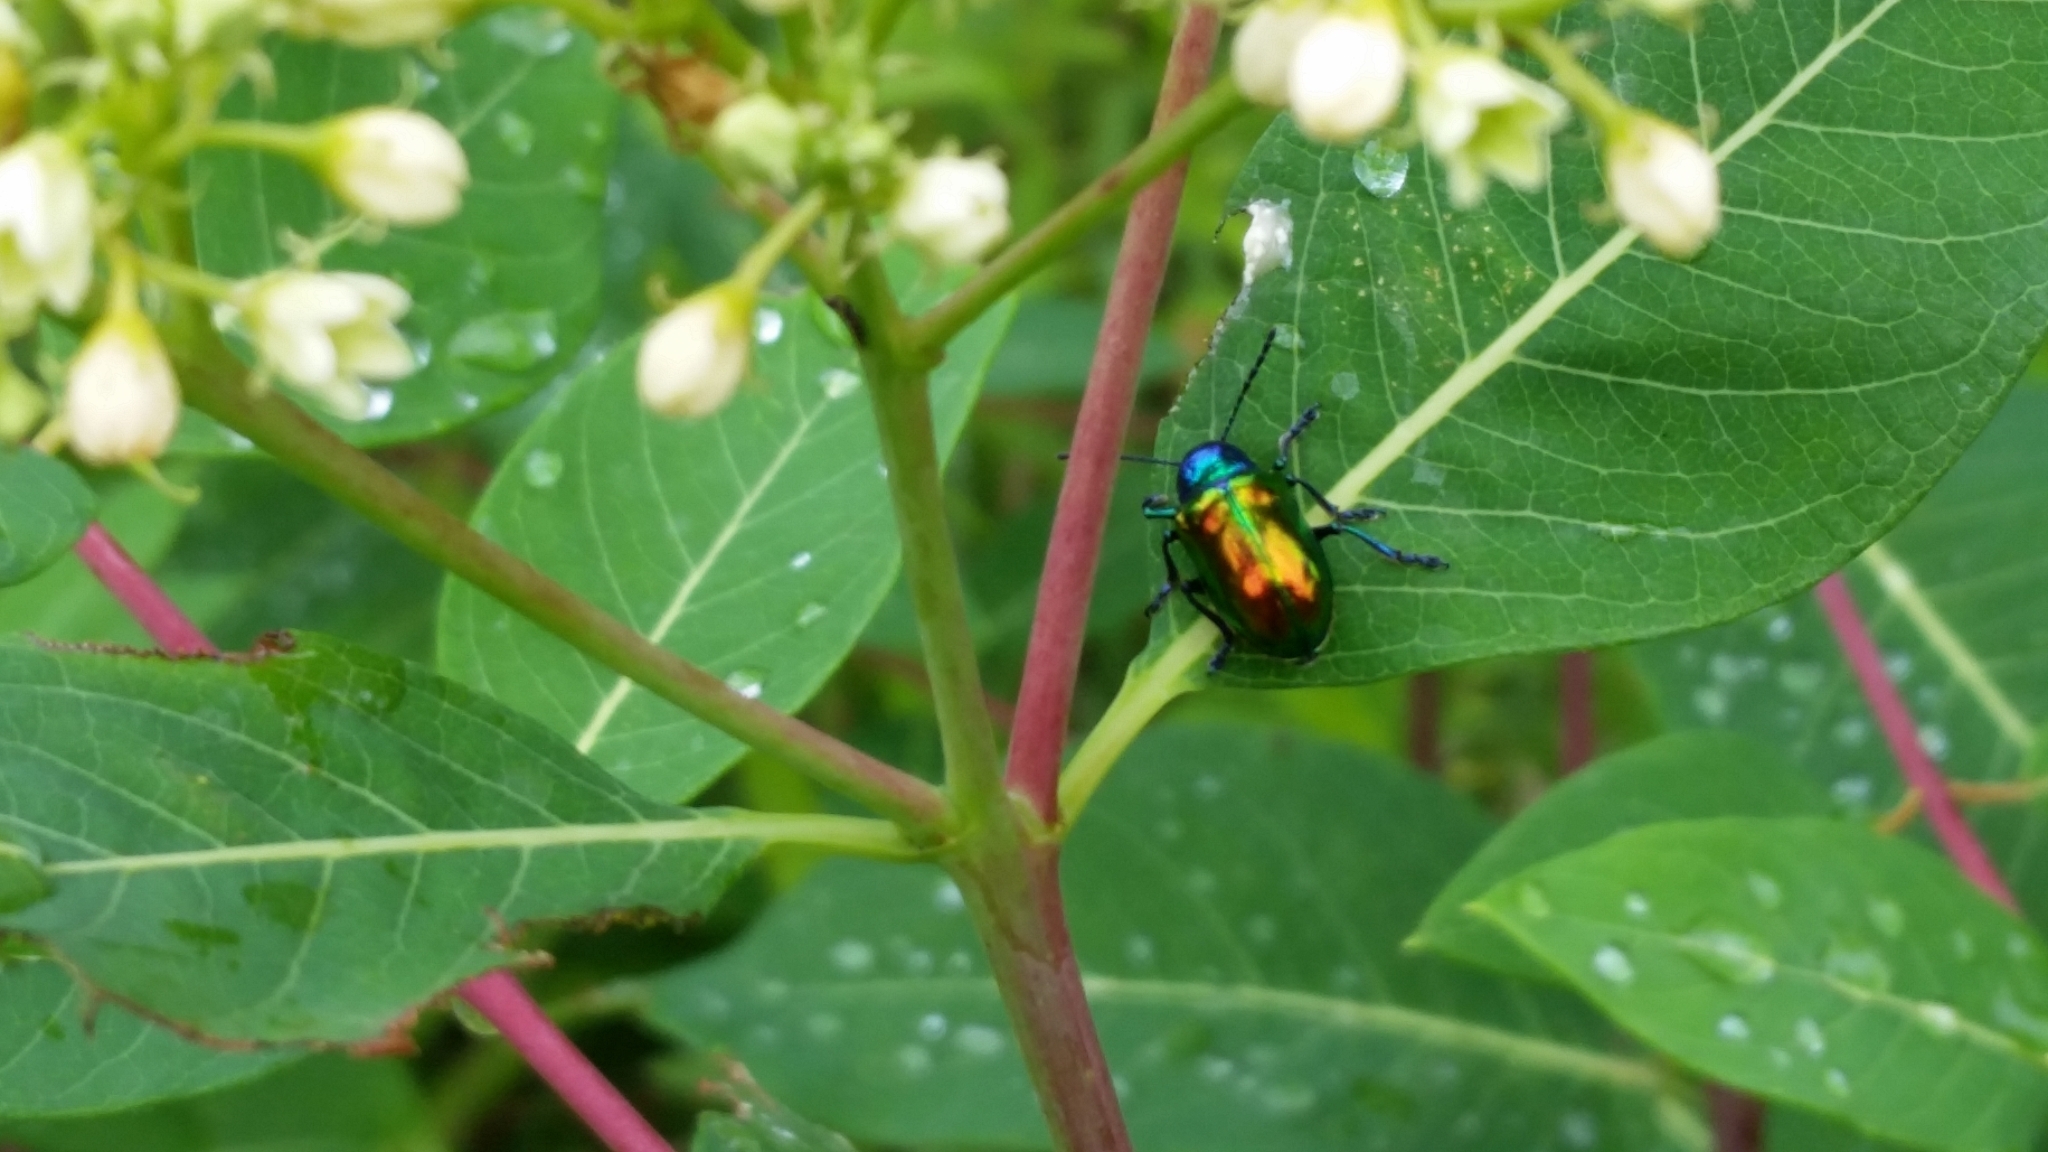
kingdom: Animalia
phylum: Arthropoda
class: Insecta
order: Coleoptera
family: Chrysomelidae
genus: Chrysochus
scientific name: Chrysochus auratus
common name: Dogbane leaf beetle
